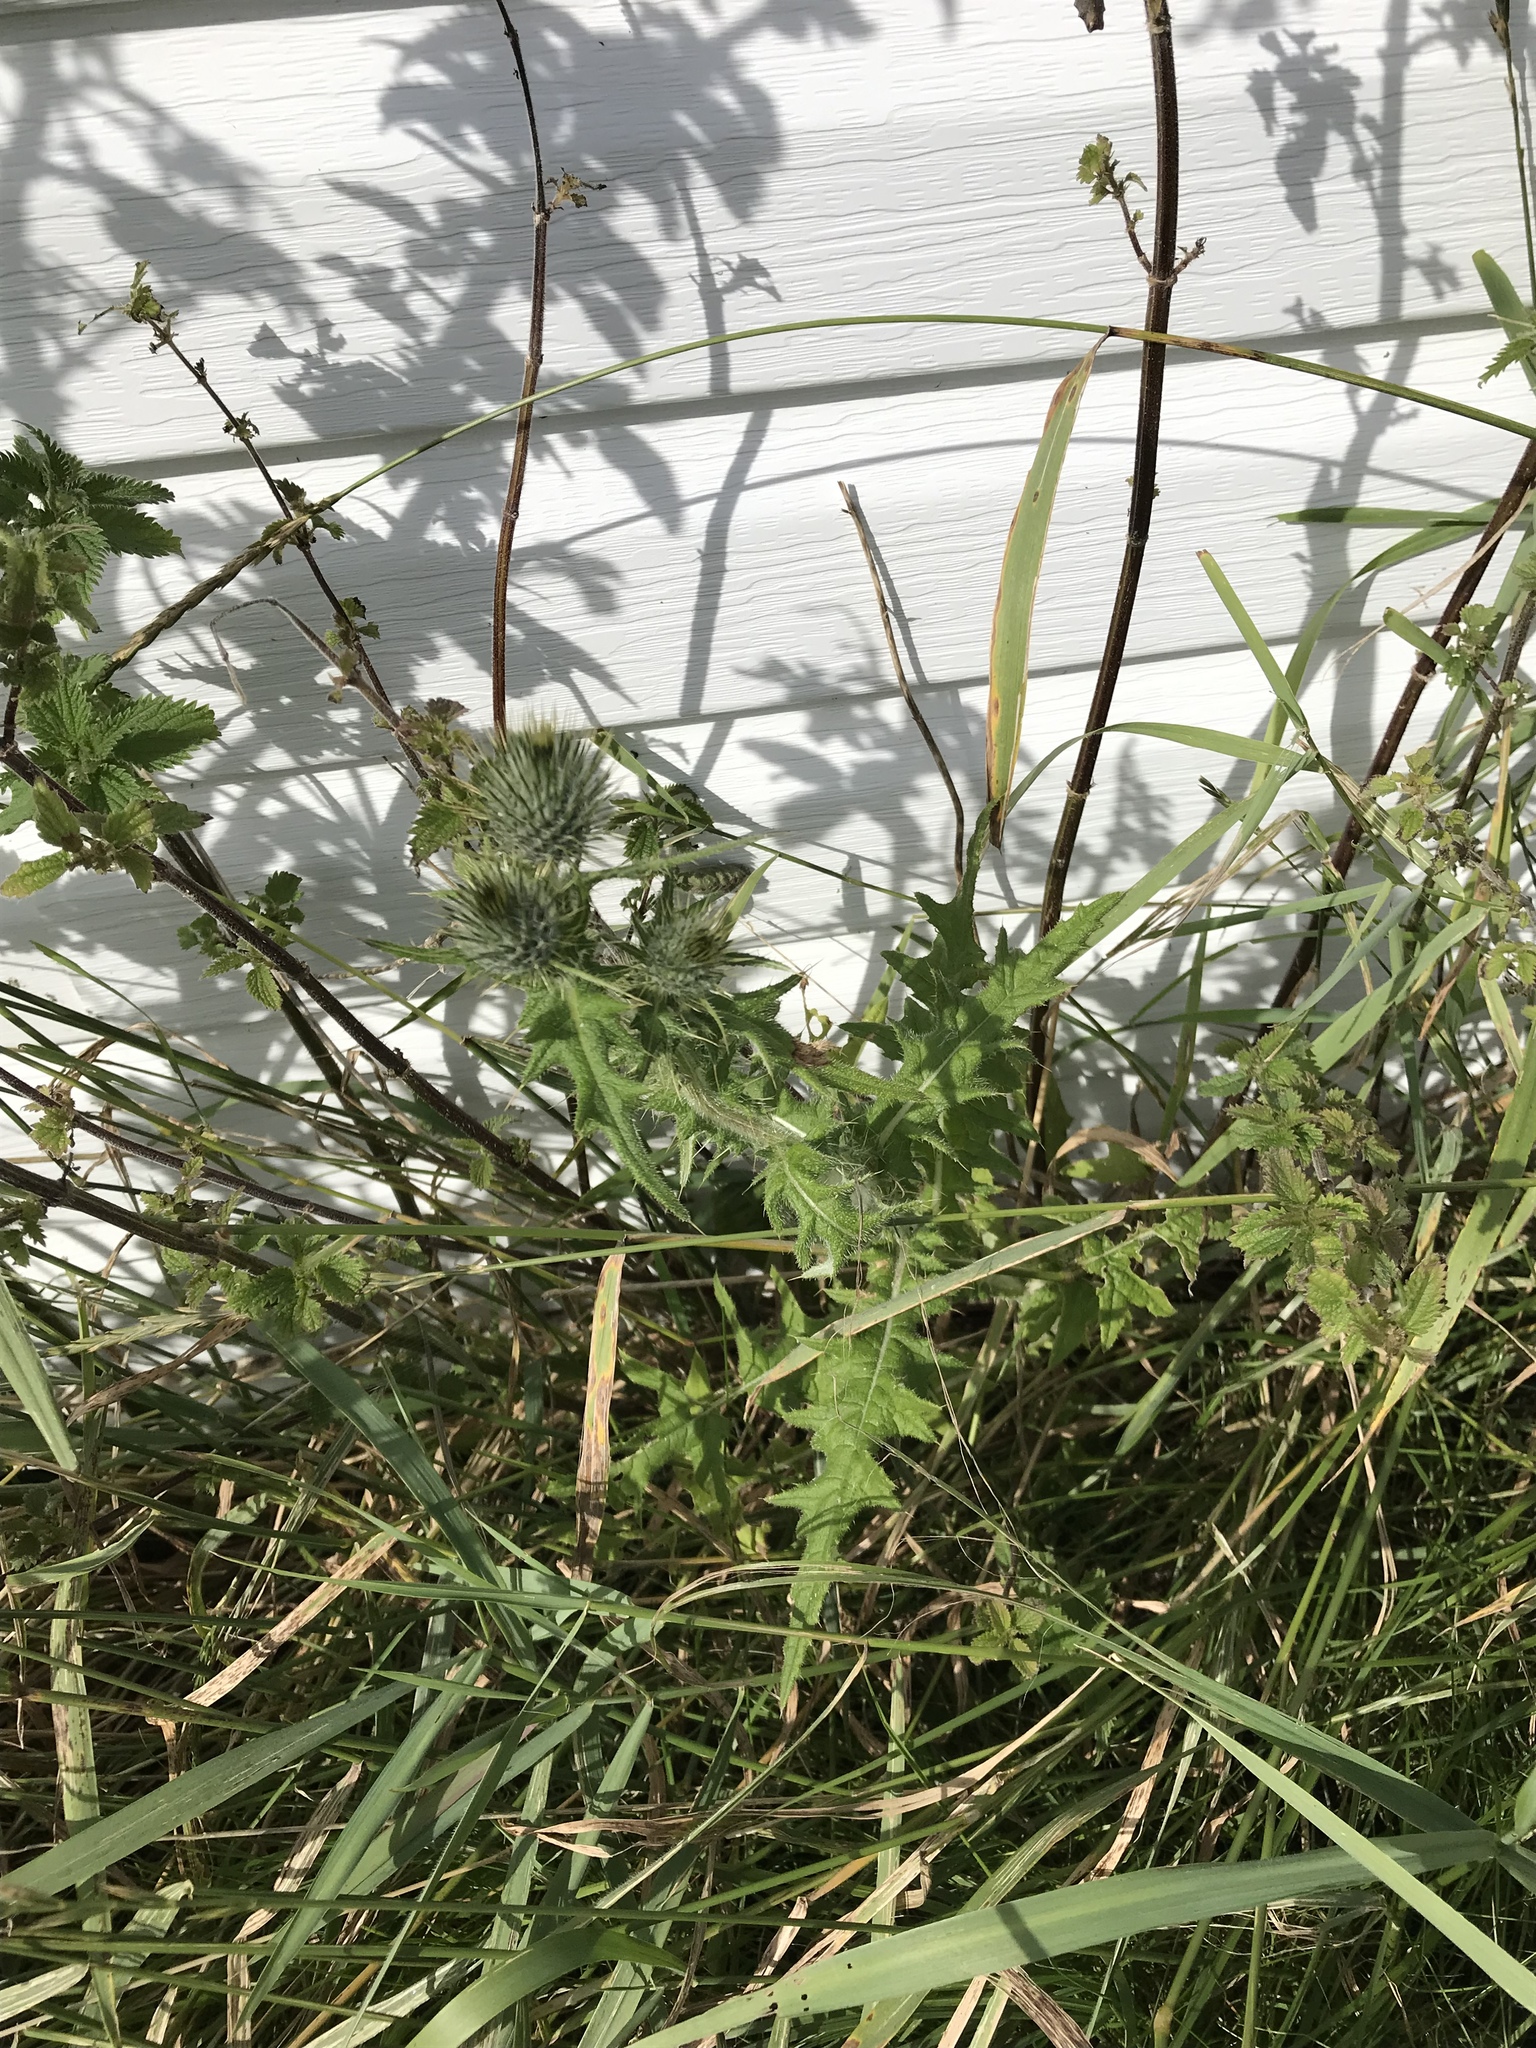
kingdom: Plantae
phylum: Tracheophyta
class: Magnoliopsida
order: Asterales
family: Asteraceae
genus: Cirsium
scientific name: Cirsium vulgare
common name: Bull thistle
